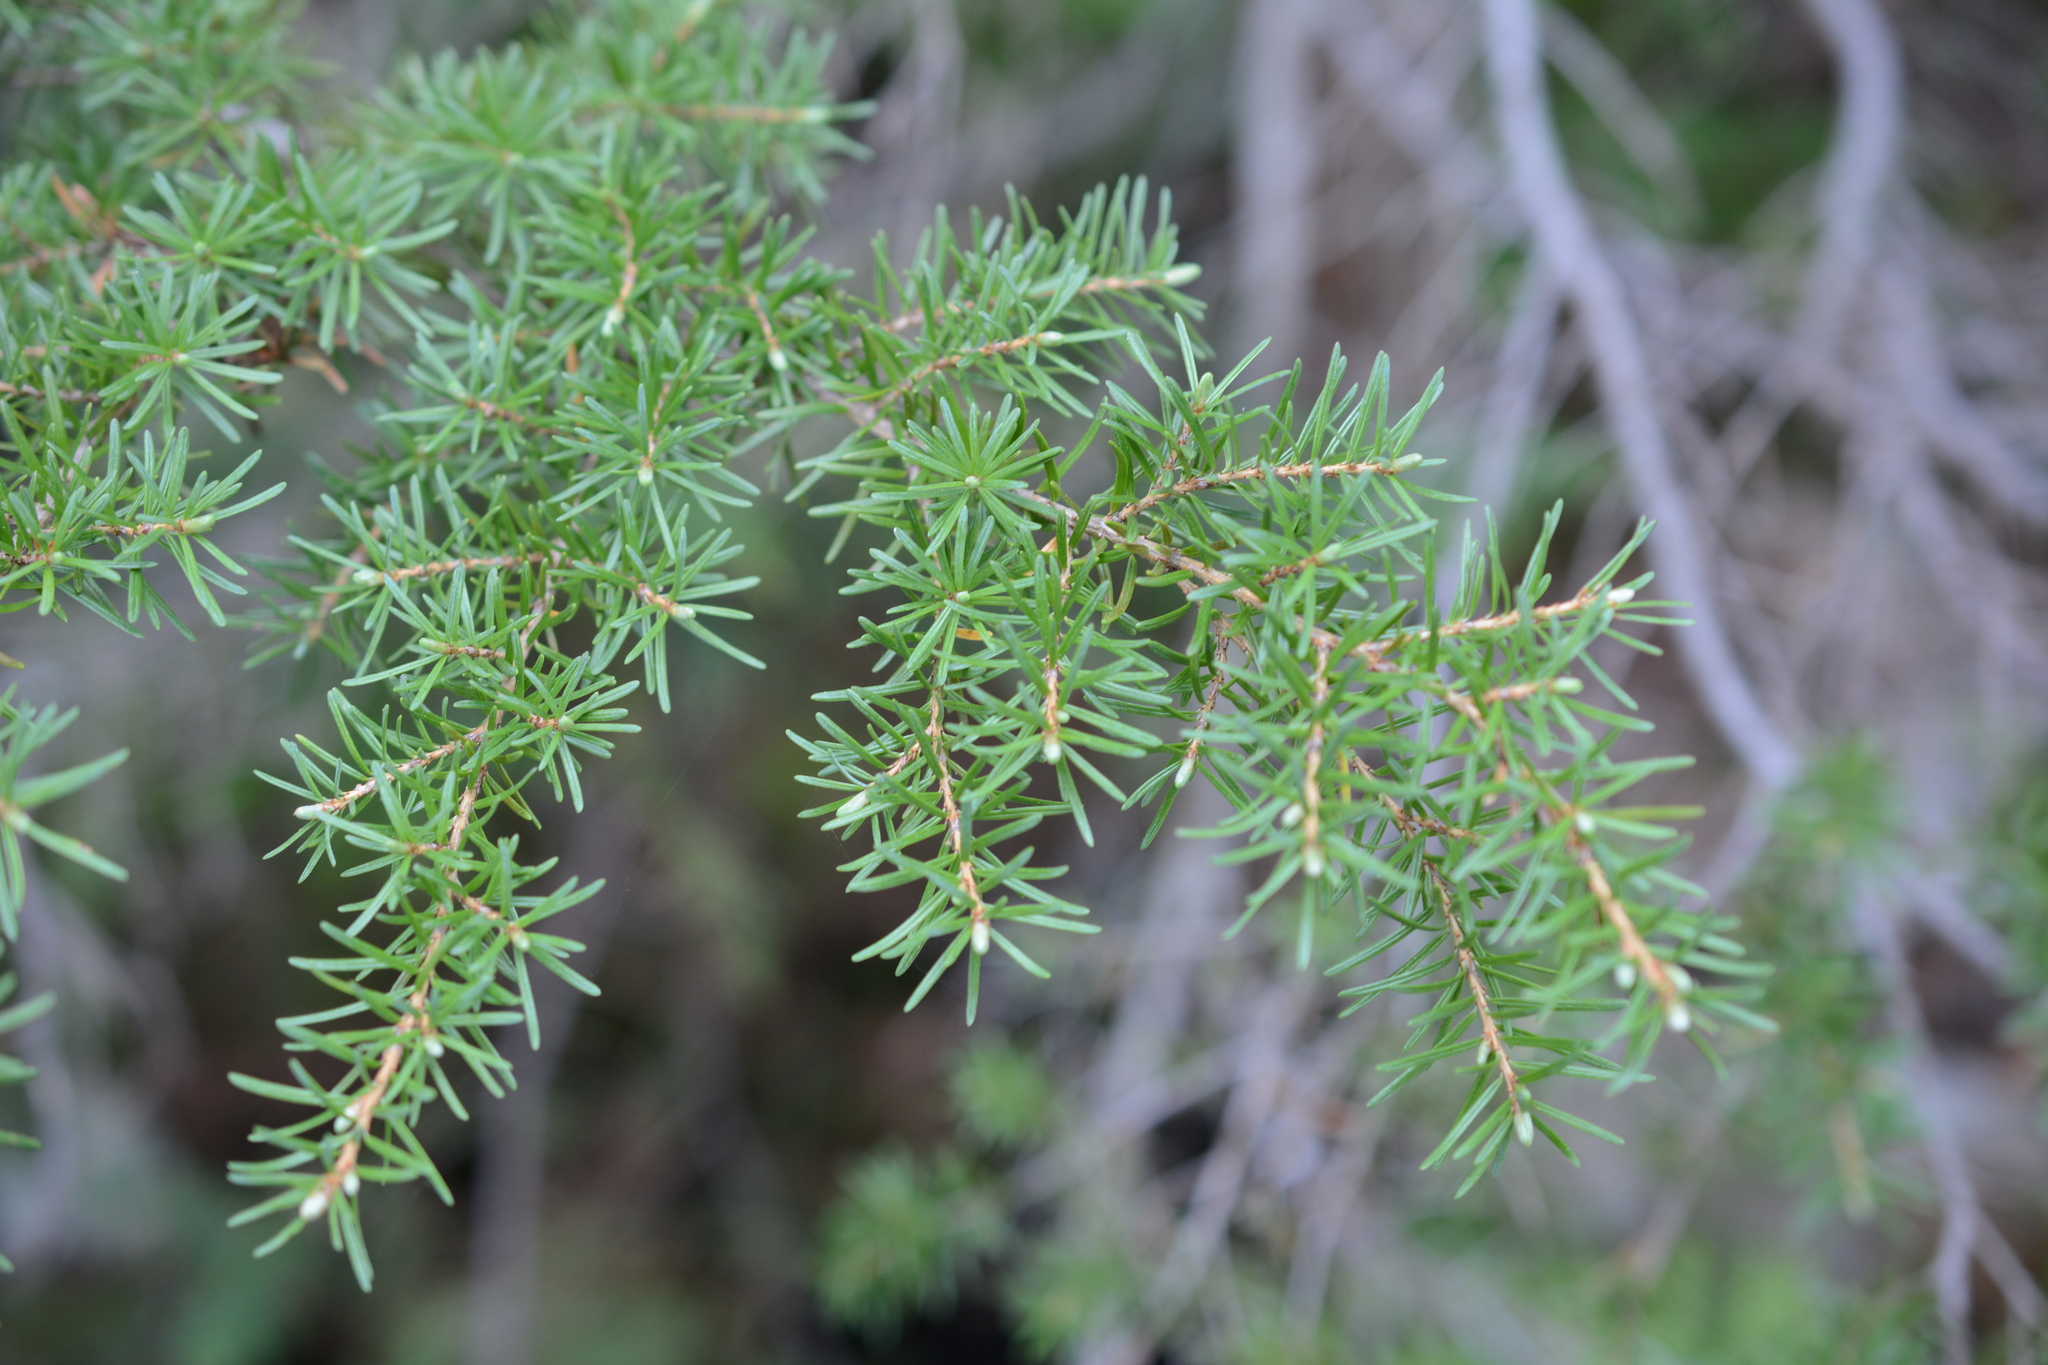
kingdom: Plantae
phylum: Tracheophyta
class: Pinopsida
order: Pinales
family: Pinaceae
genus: Tsuga
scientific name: Tsuga mertensiana
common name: Mountain hemlock
